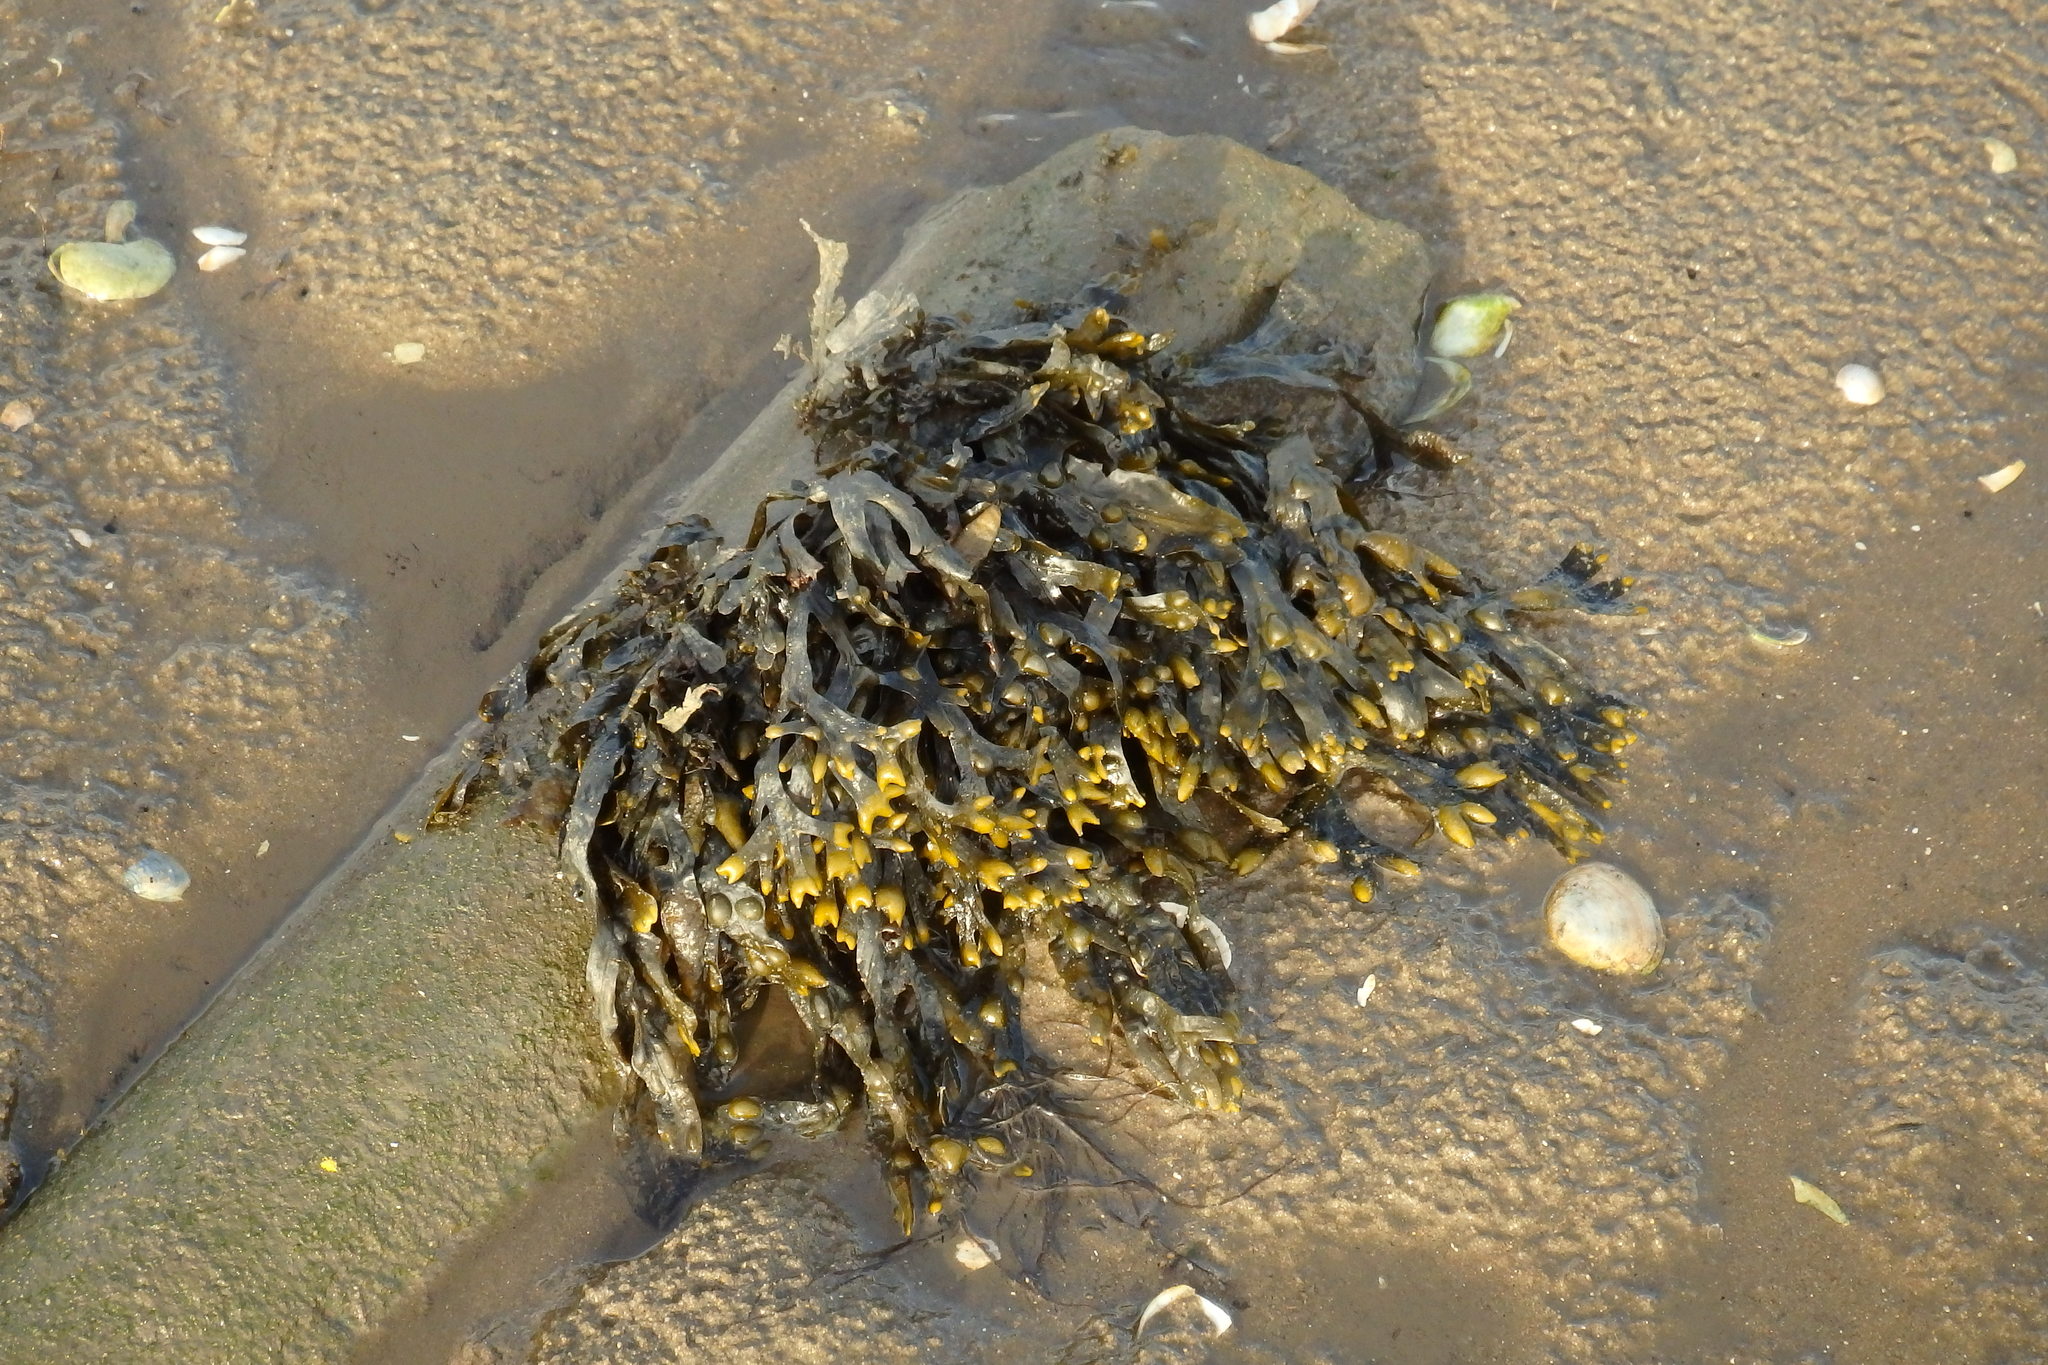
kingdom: Chromista
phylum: Ochrophyta
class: Phaeophyceae
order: Fucales
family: Fucaceae
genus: Fucus
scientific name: Fucus vesiculosus
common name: Bladder wrack
